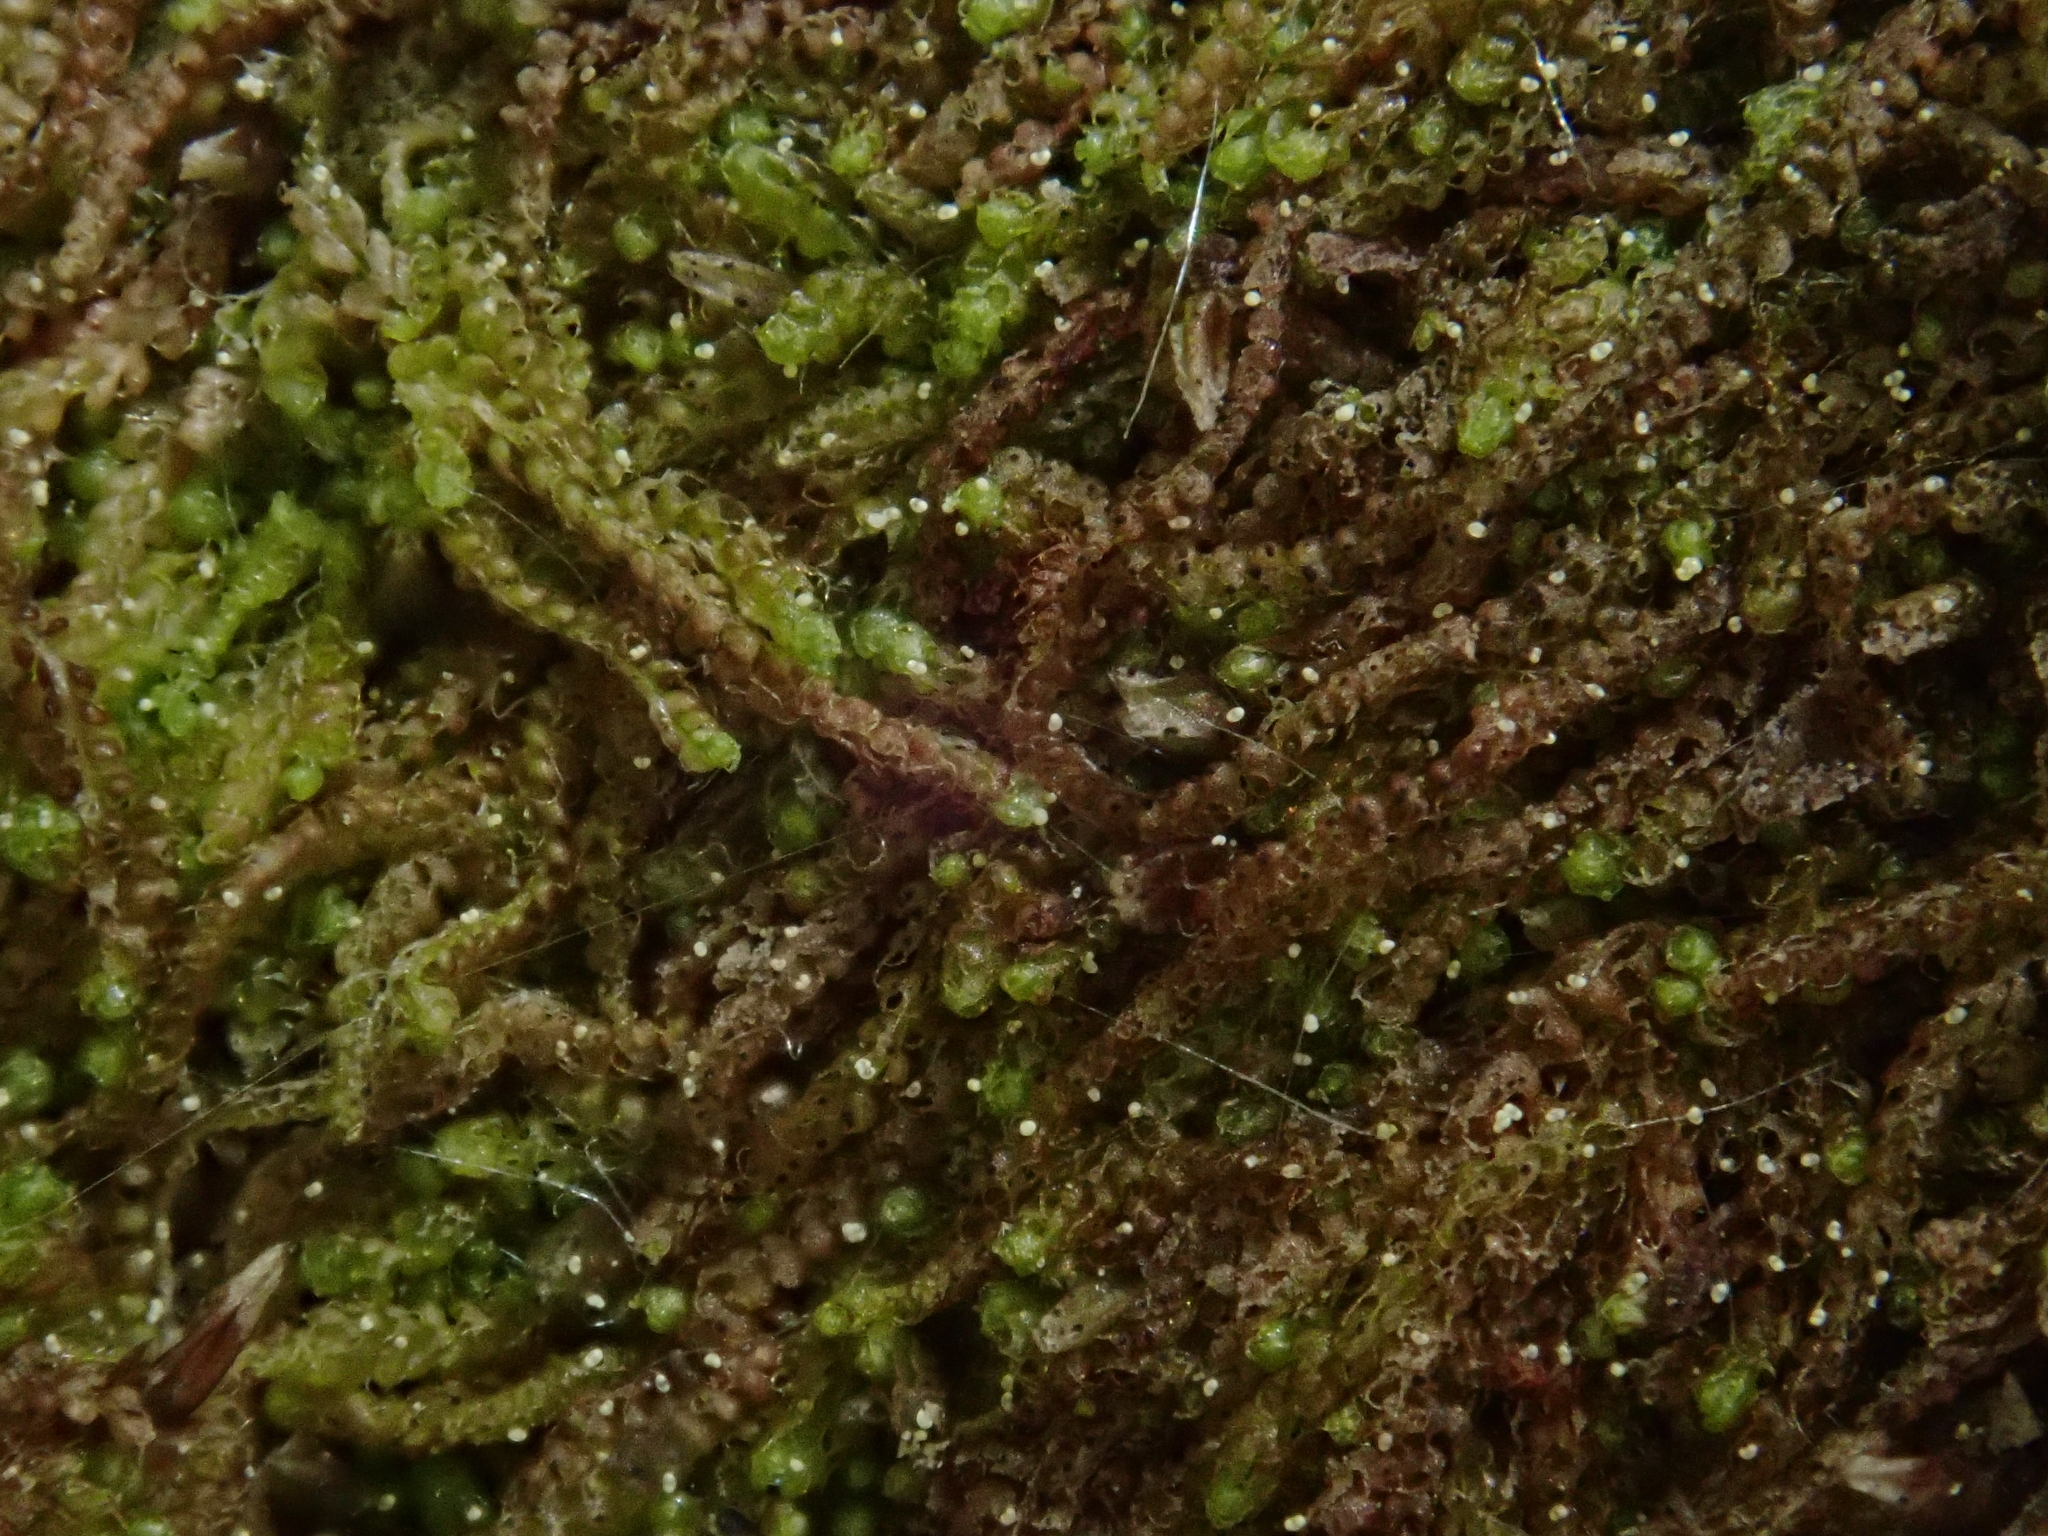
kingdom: Plantae
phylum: Marchantiophyta
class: Jungermanniopsida
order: Jungermanniales
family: Cephaloziaceae
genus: Nowellia
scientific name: Nowellia curvifolia
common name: Wood rustwort
